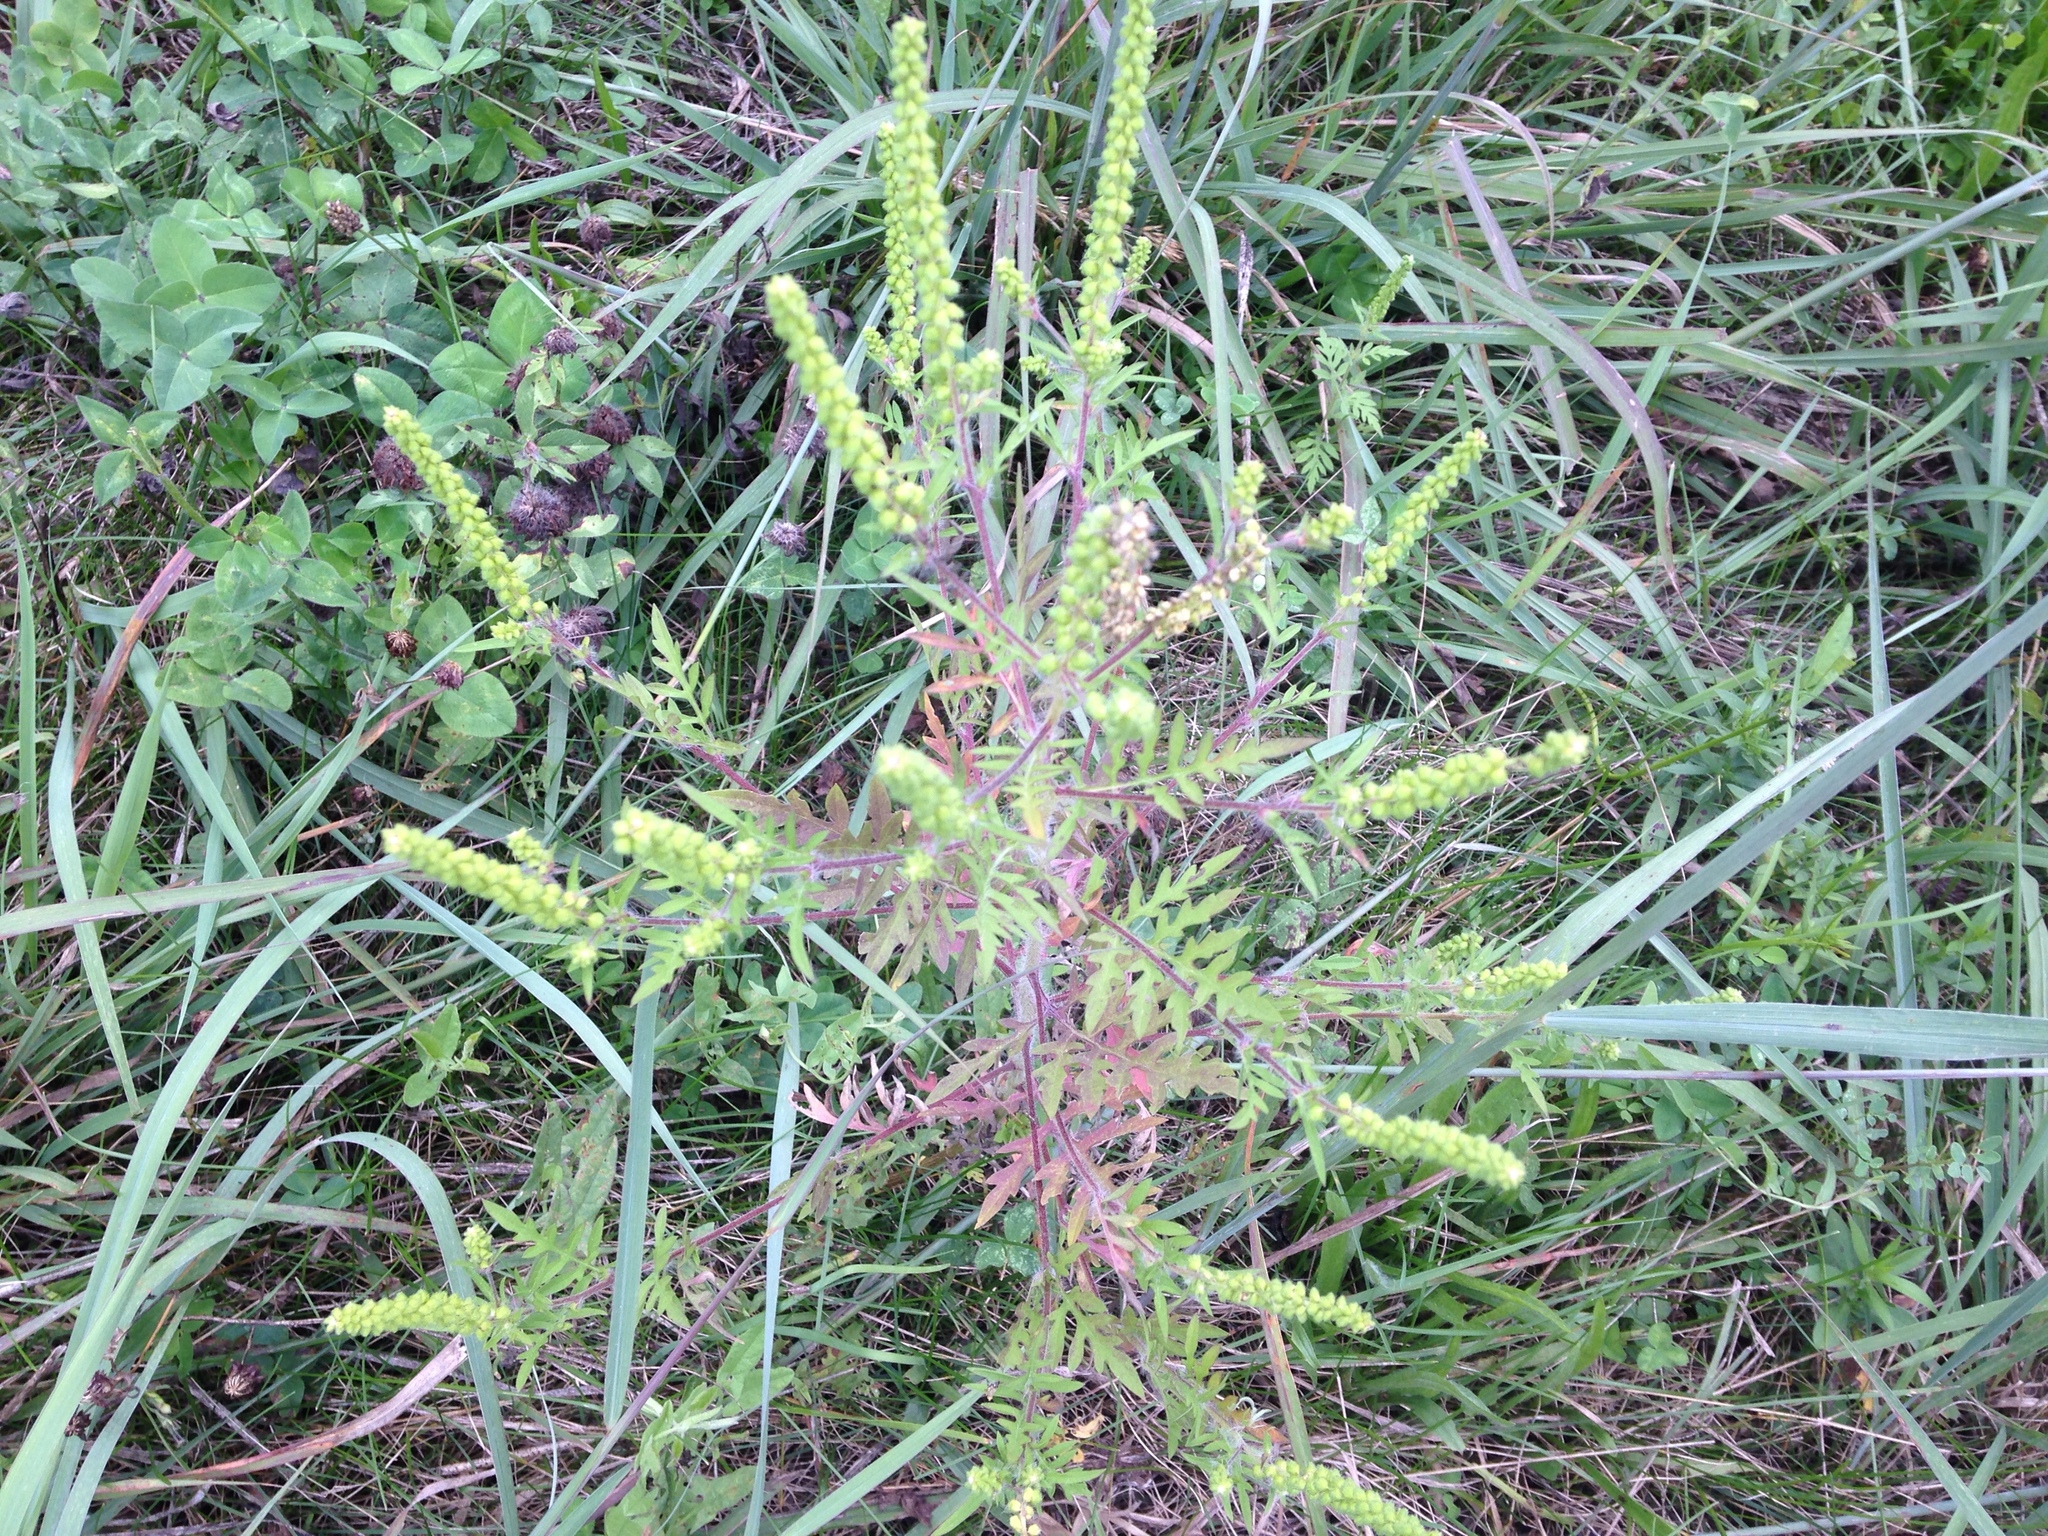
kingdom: Plantae
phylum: Tracheophyta
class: Magnoliopsida
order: Asterales
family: Asteraceae
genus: Ambrosia
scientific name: Ambrosia artemisiifolia
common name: Annual ragweed
